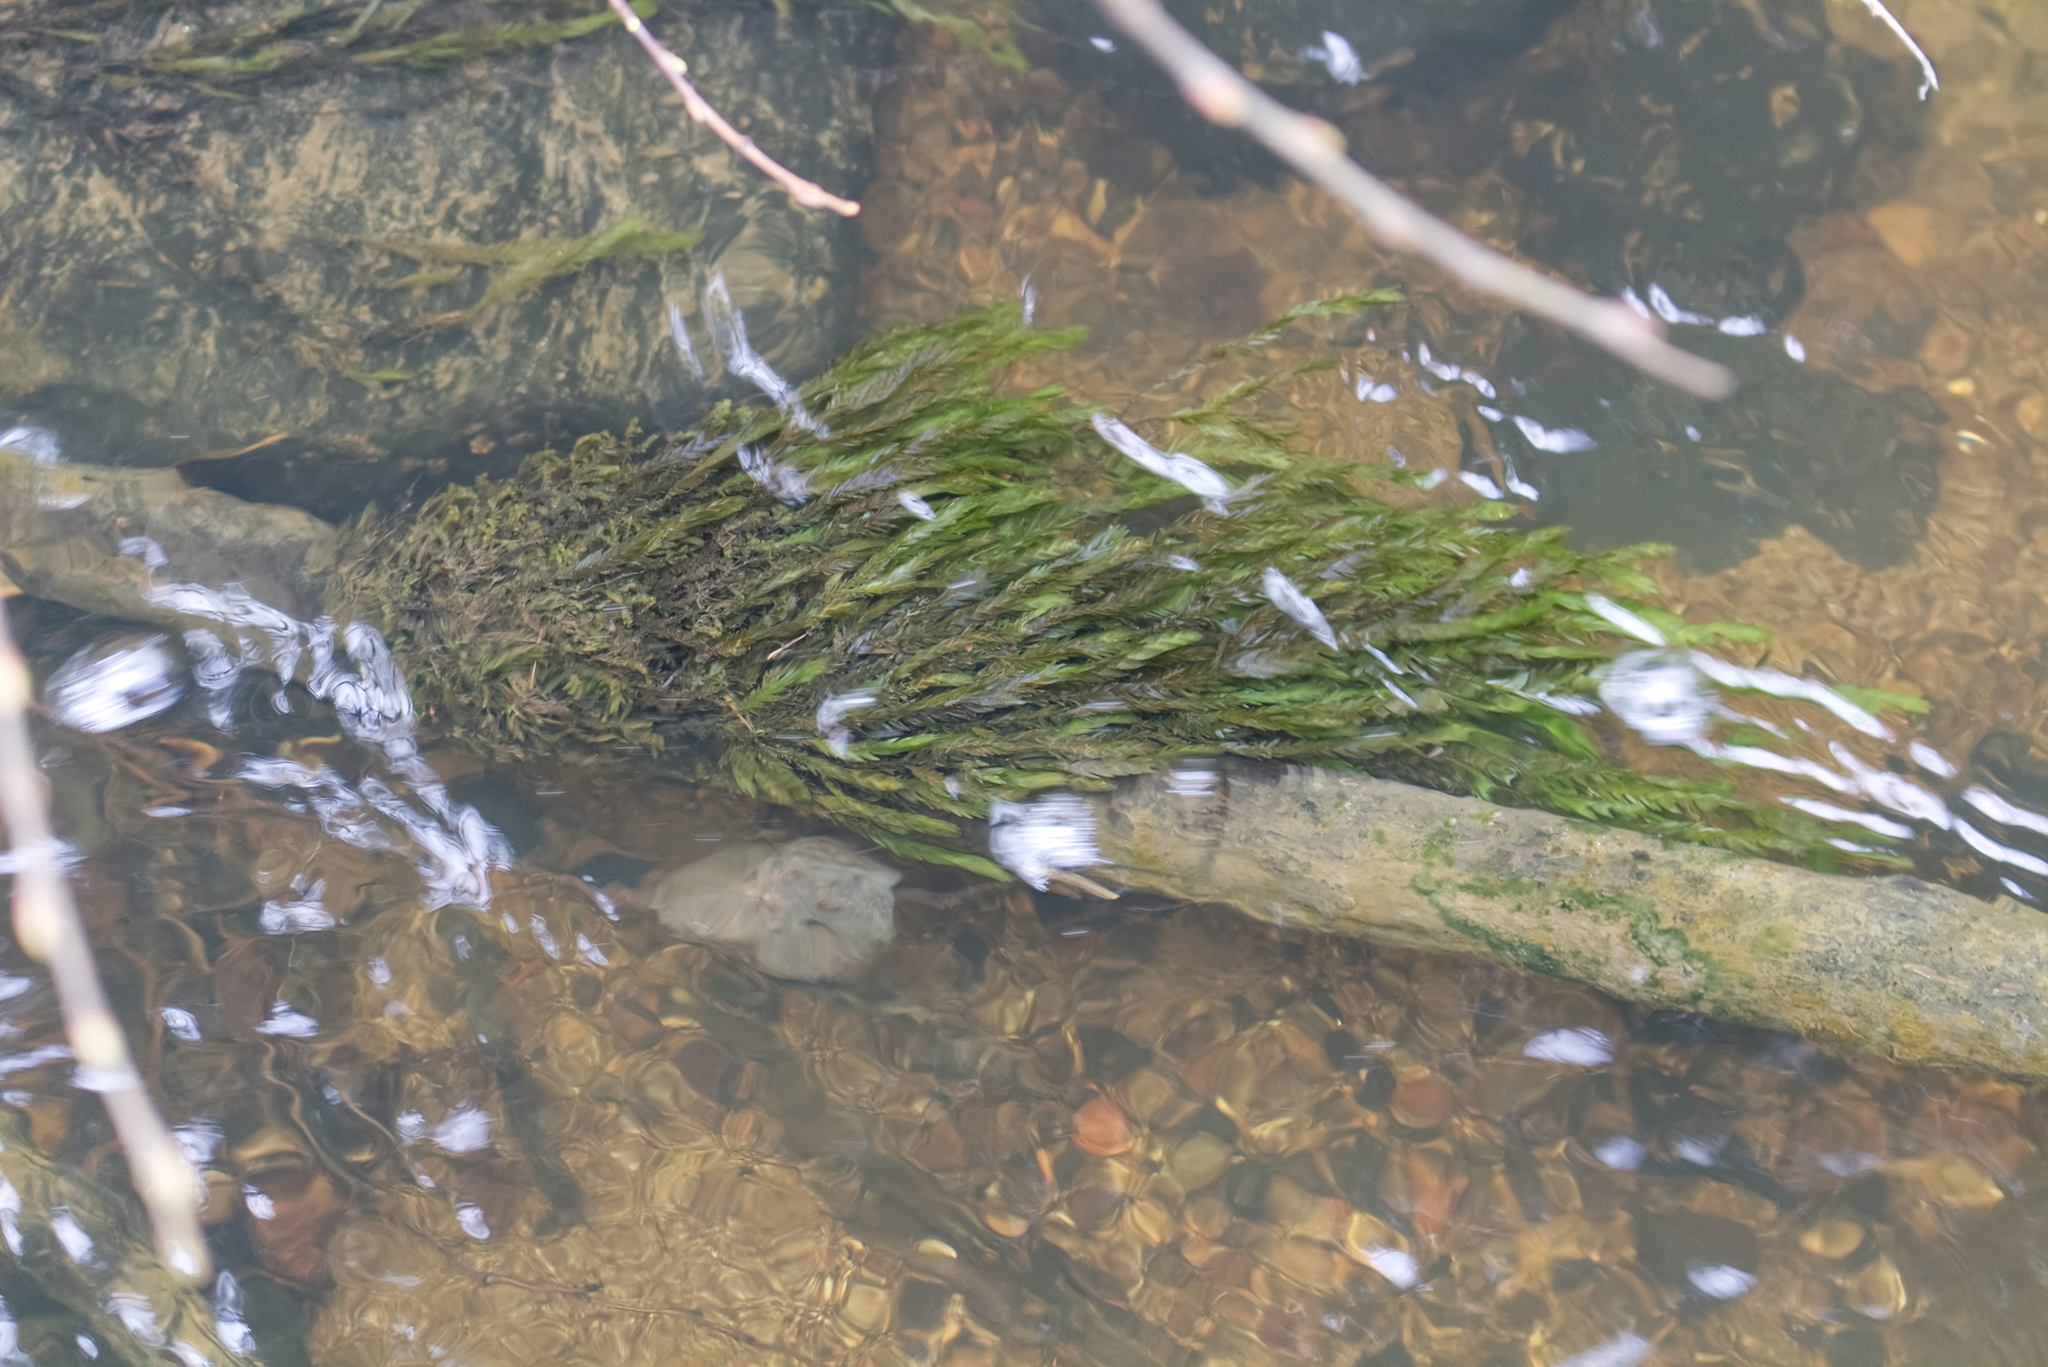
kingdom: Plantae
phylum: Bryophyta
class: Bryopsida
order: Hypnales
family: Fontinalaceae
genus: Fontinalis
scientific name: Fontinalis antipyretica
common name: Greater water-moss
